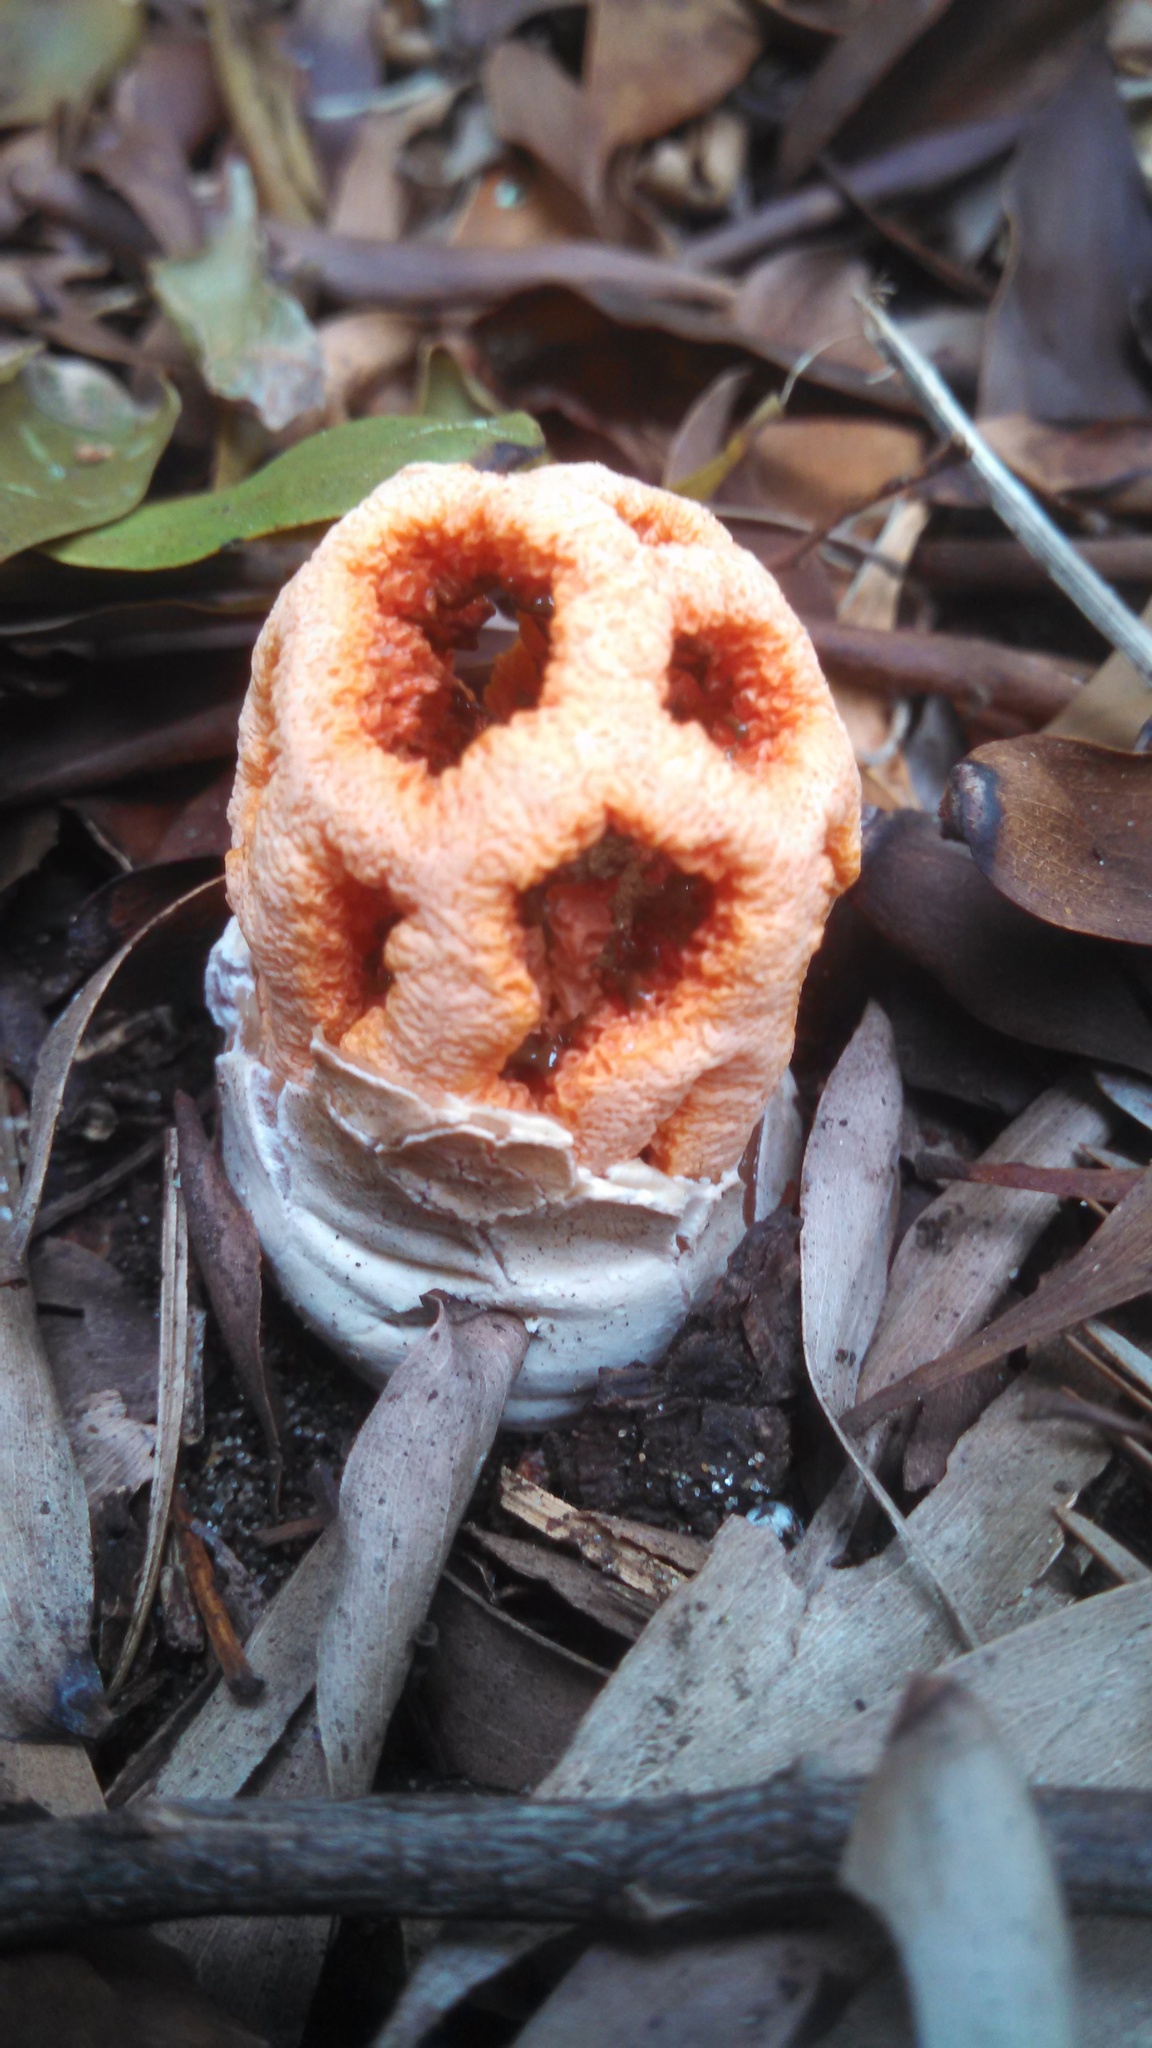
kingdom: Fungi
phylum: Basidiomycota
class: Agaricomycetes
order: Phallales
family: Phallaceae
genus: Clathrus
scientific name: Clathrus ruber
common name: Red cage
